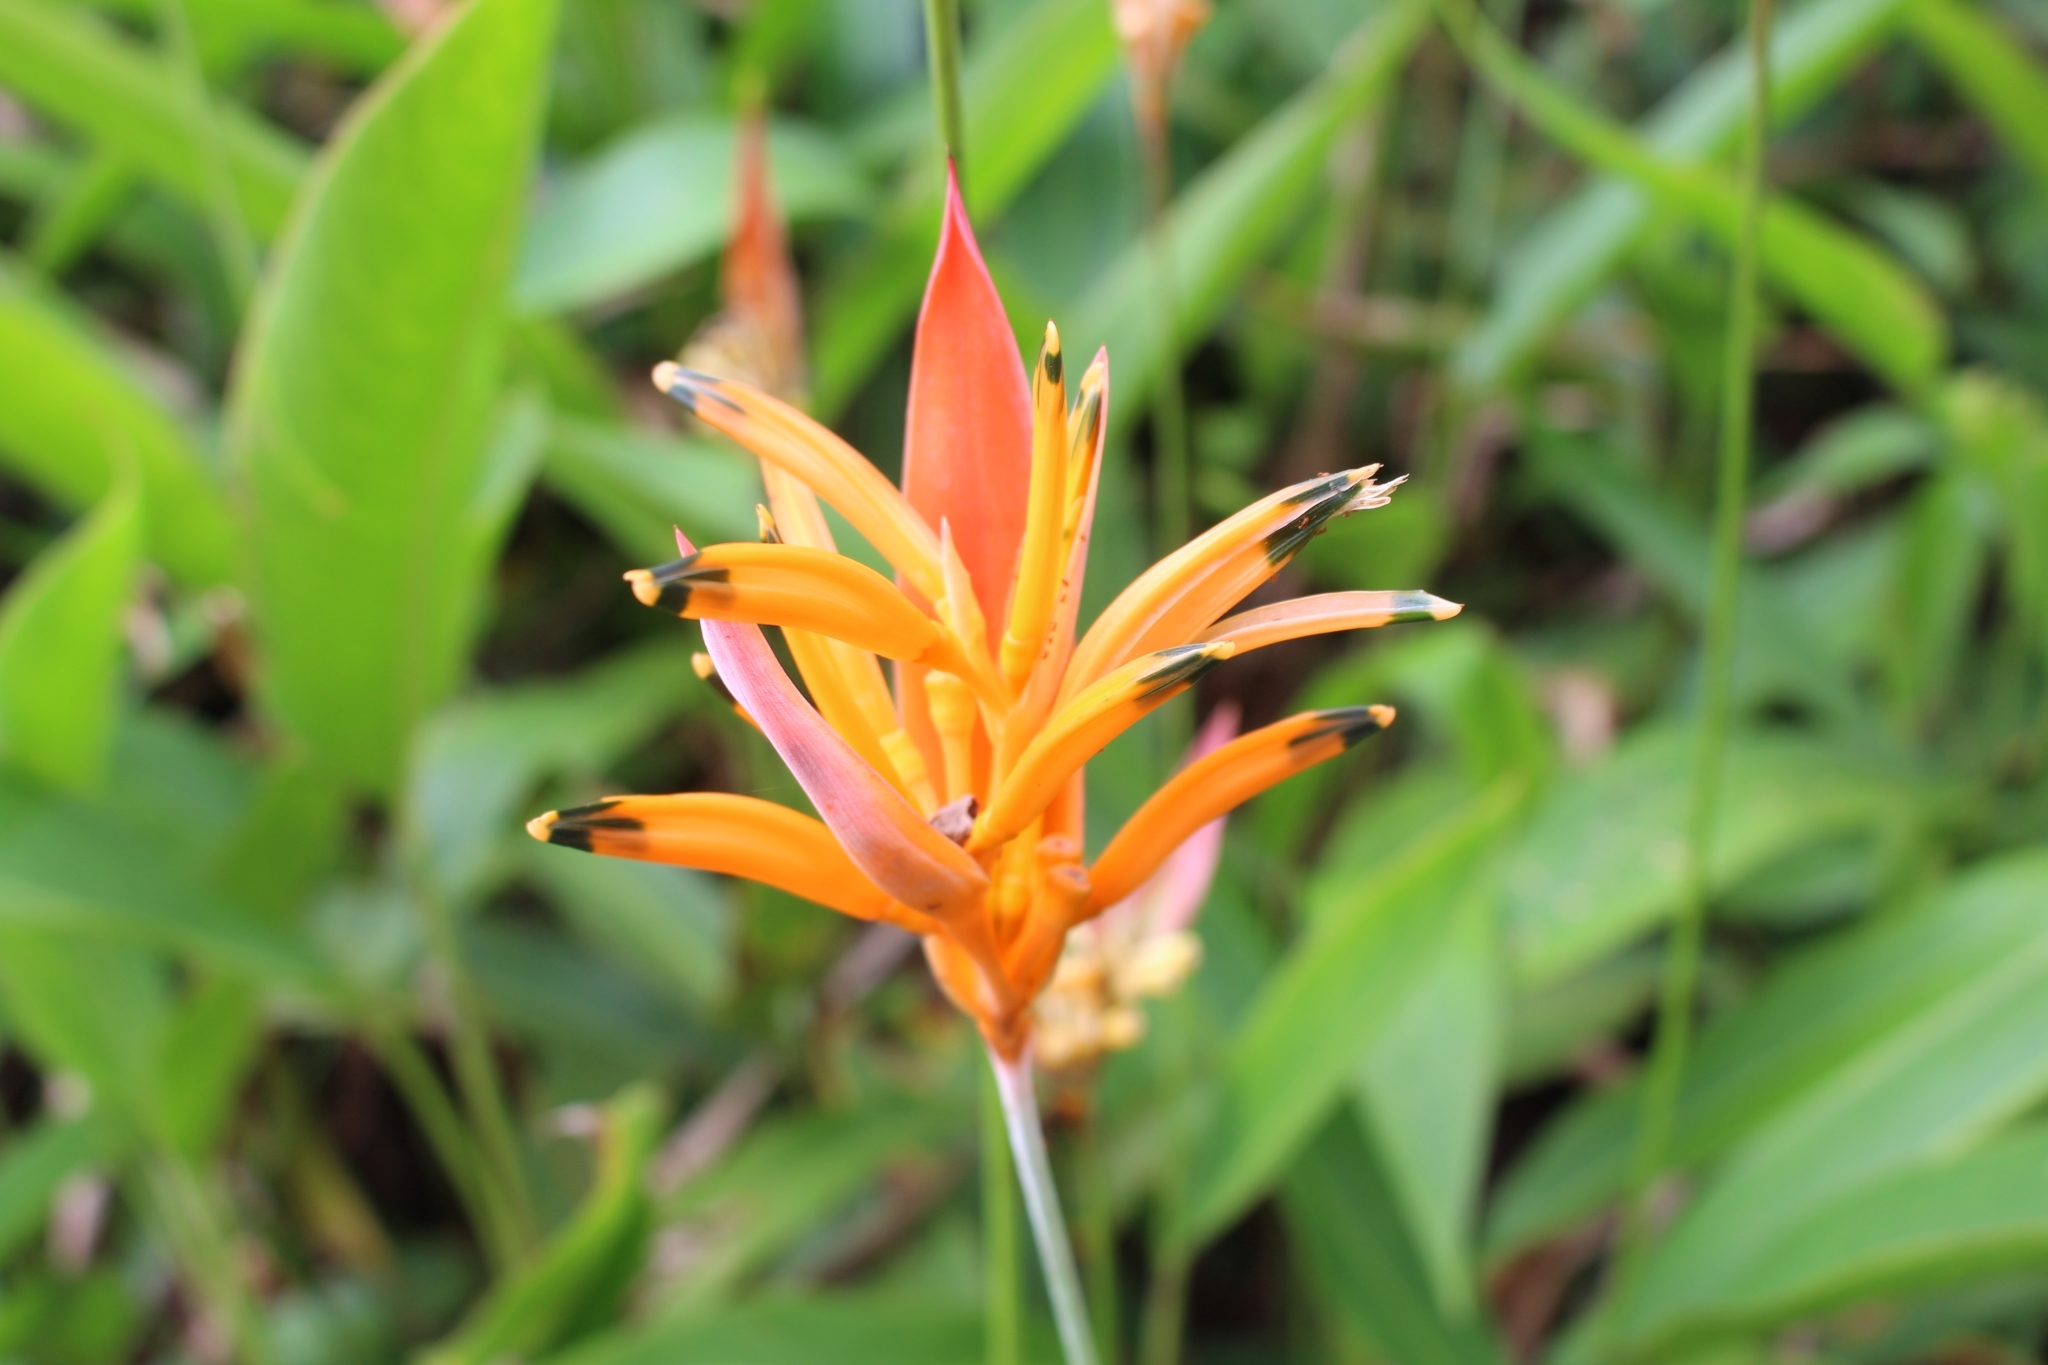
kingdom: Plantae
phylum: Tracheophyta
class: Liliopsida
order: Zingiberales
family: Heliconiaceae
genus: Heliconia
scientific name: Heliconia psittacorum
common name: Parrot's-flower
